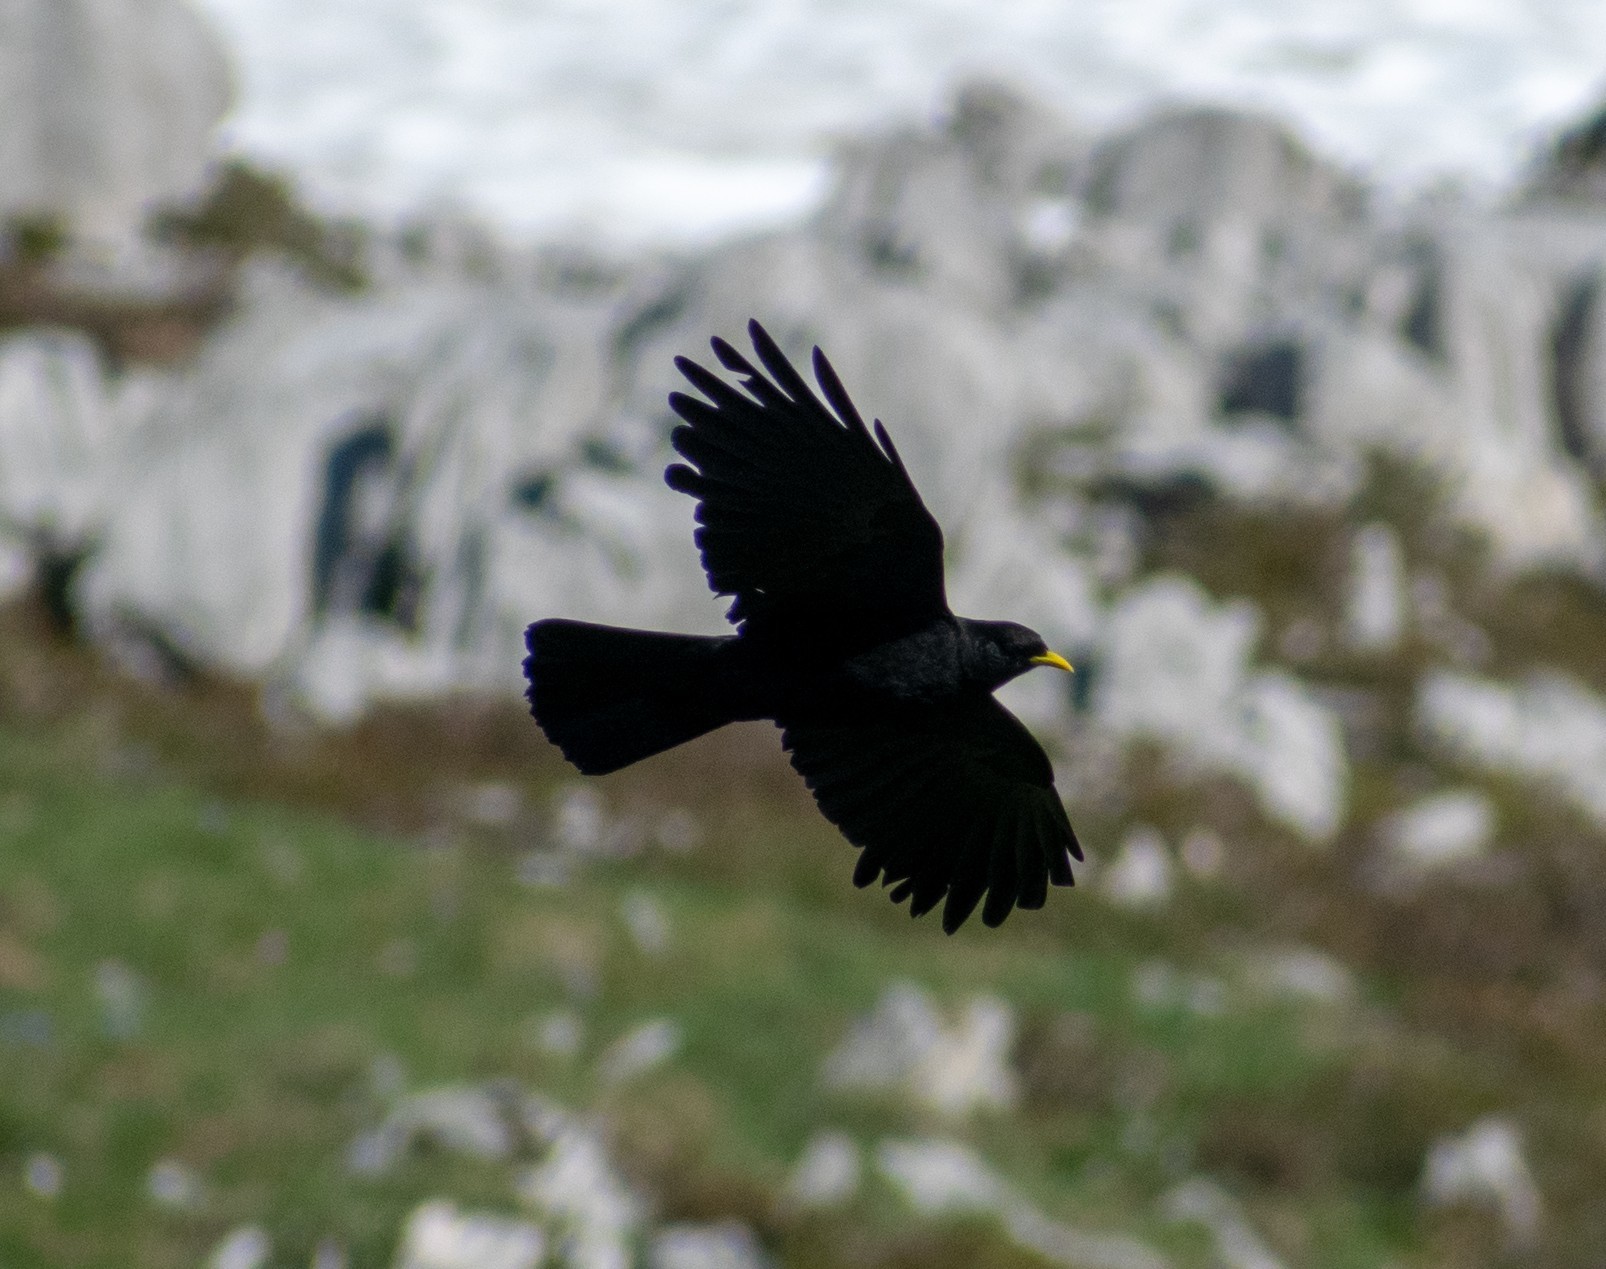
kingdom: Animalia
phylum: Chordata
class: Aves
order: Passeriformes
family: Corvidae
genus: Pyrrhocorax
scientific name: Pyrrhocorax graculus
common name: Alpine chough
